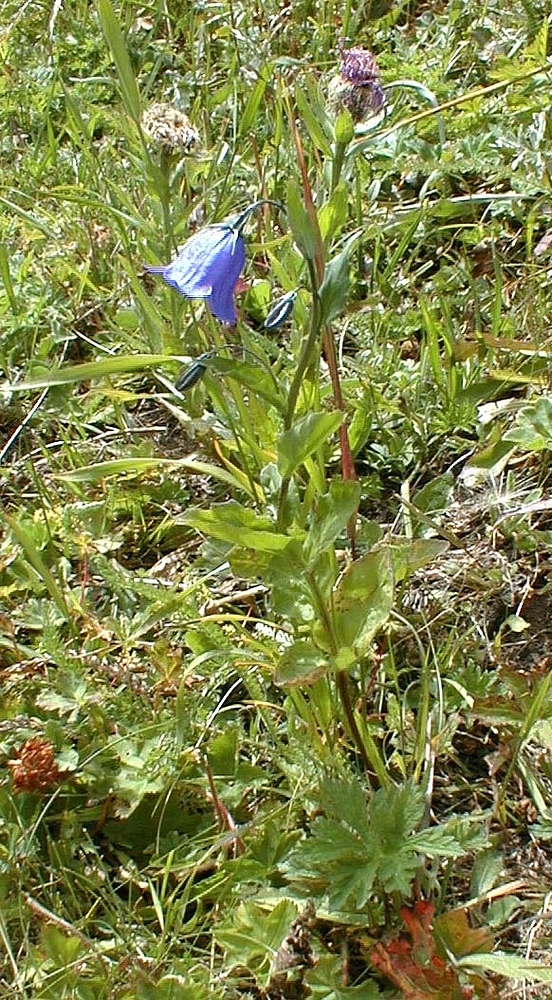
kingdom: Plantae
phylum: Tracheophyta
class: Magnoliopsida
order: Asterales
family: Campanulaceae
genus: Campanula
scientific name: Campanula rhomboidalis
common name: Broad-leaved harebell
